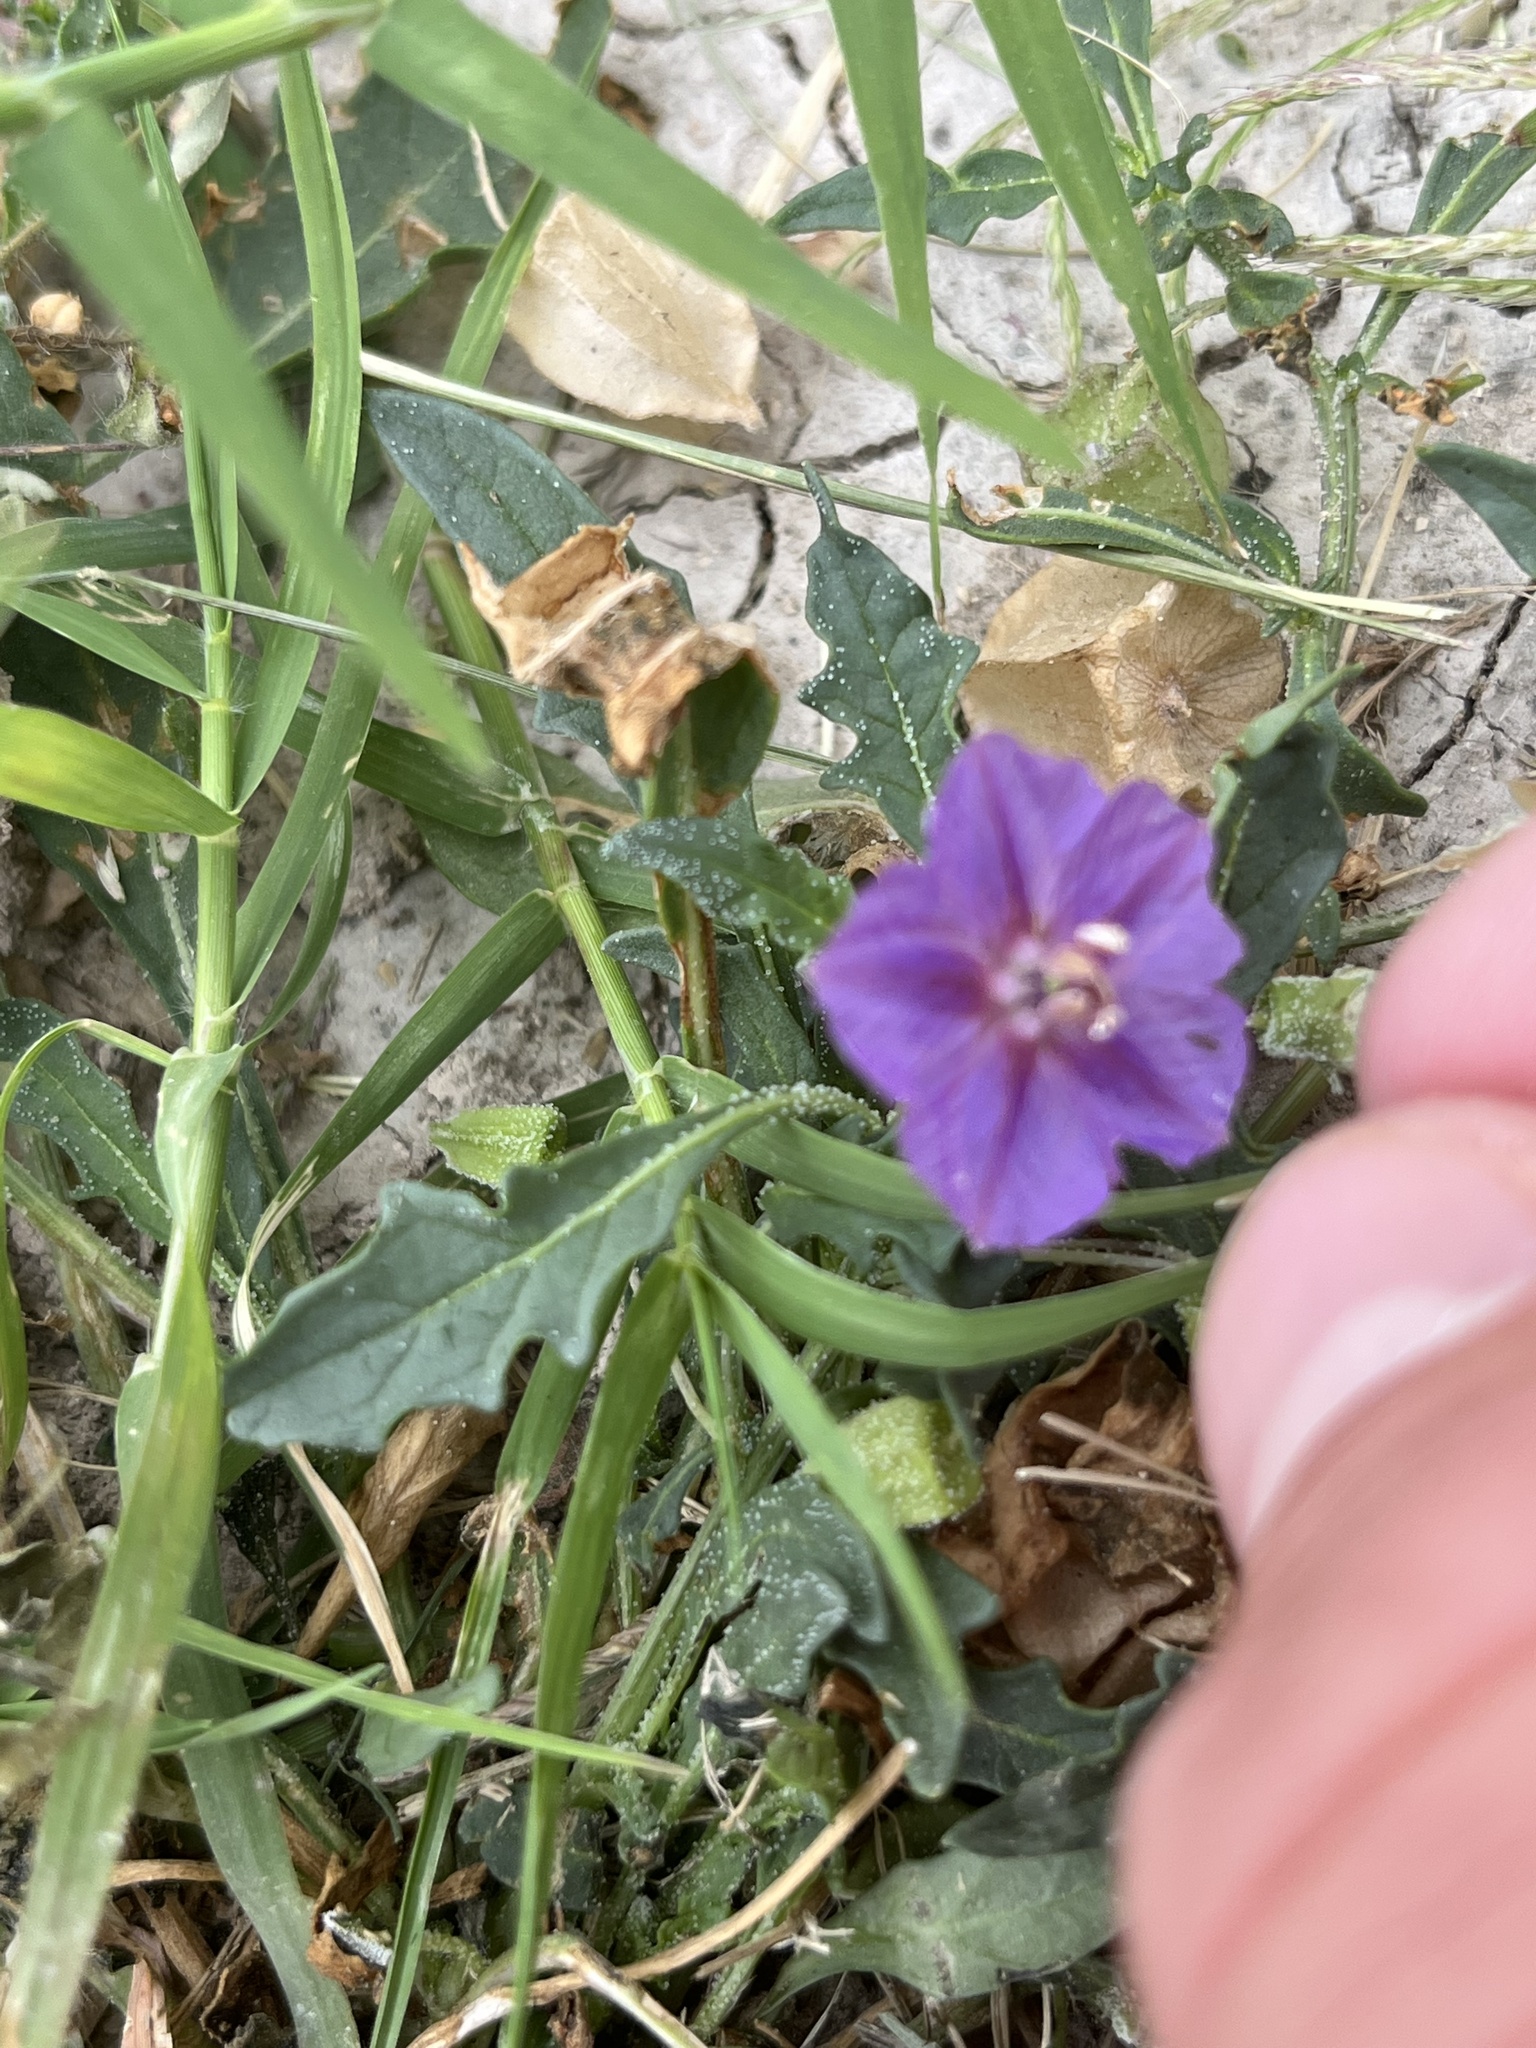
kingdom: Plantae
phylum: Tracheophyta
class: Magnoliopsida
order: Solanales
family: Solanaceae
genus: Quincula
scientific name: Quincula lobata
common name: Purple-ground-cherry
